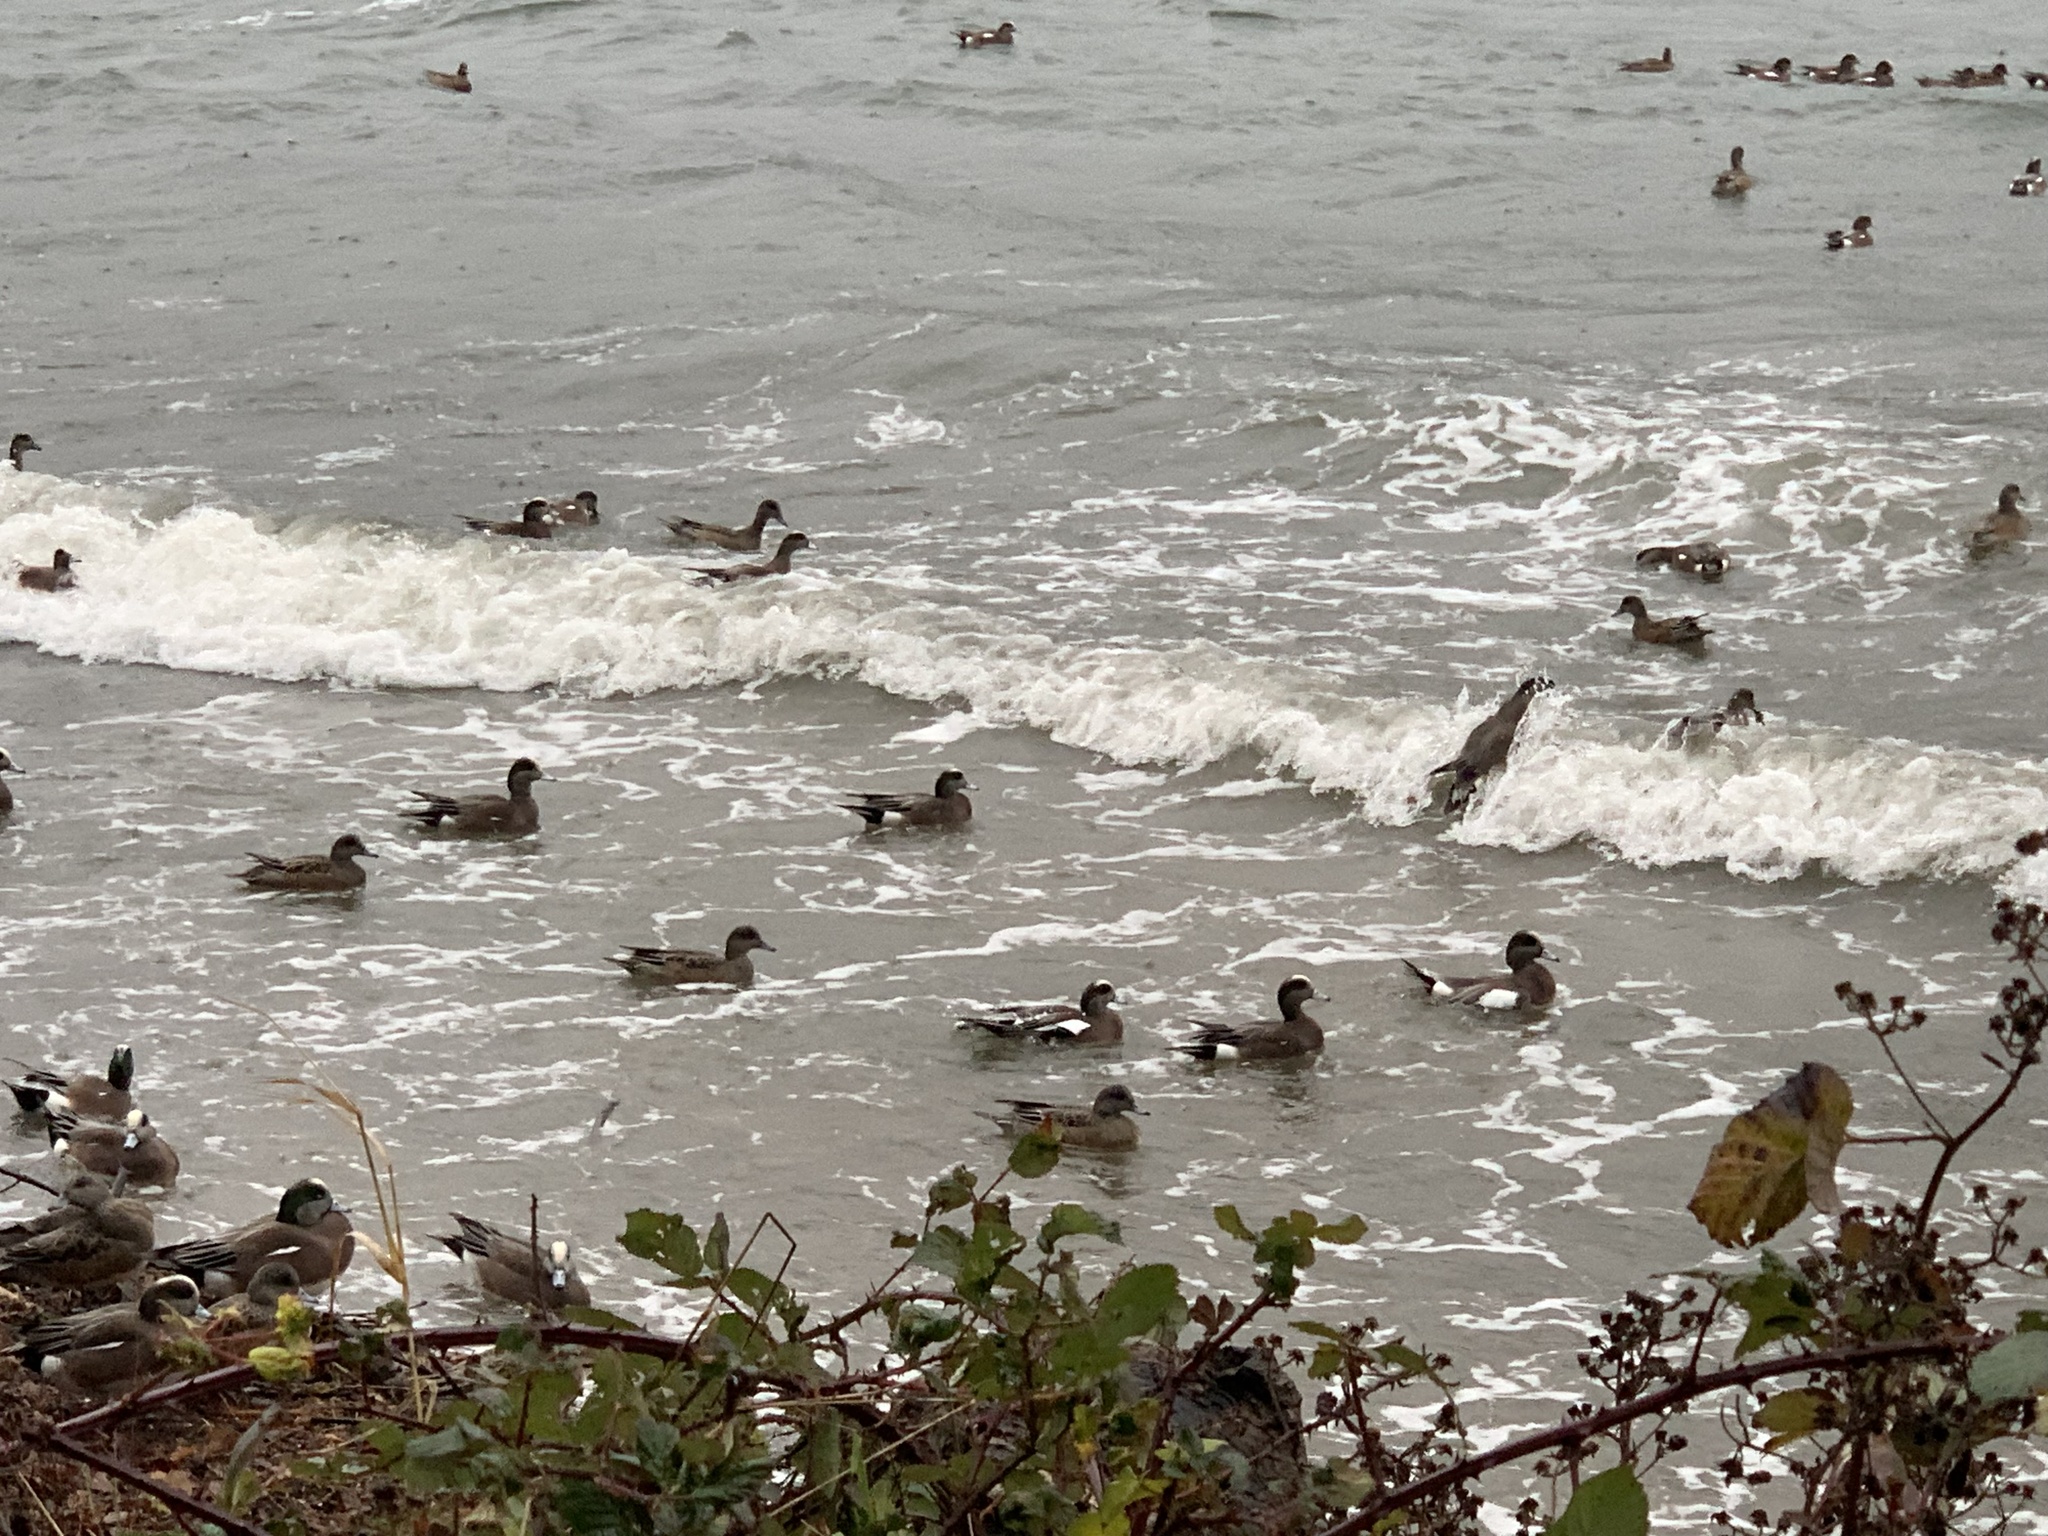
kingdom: Animalia
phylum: Chordata
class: Aves
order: Anseriformes
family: Anatidae
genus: Mareca
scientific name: Mareca americana
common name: American wigeon
